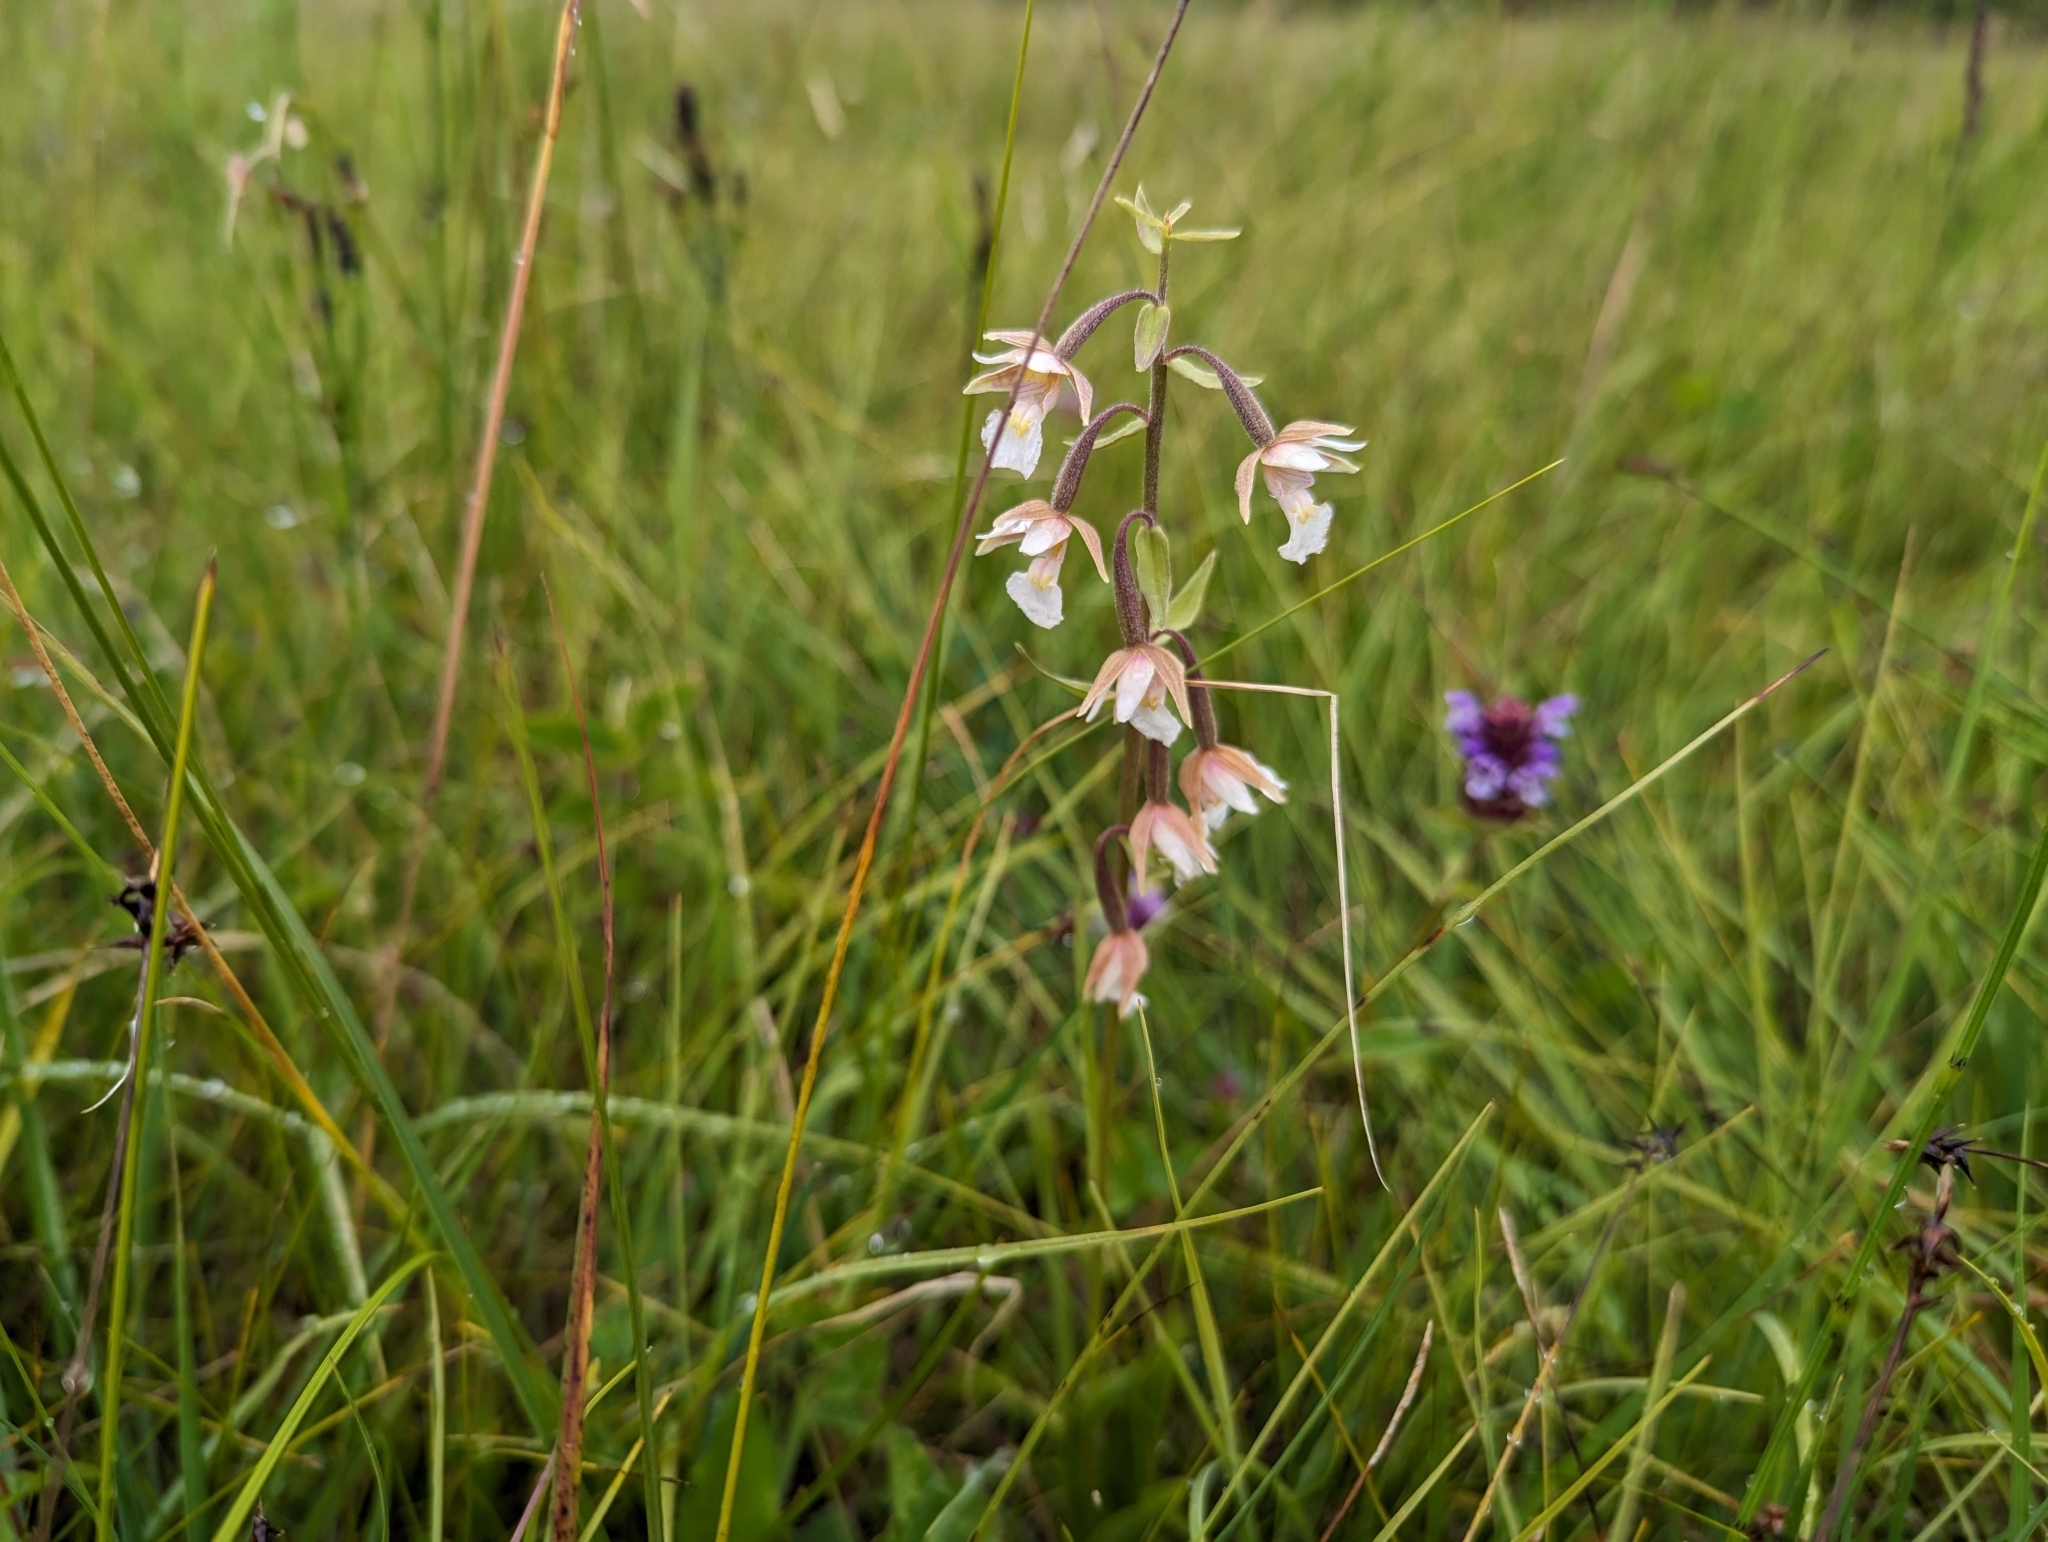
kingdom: Plantae
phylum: Tracheophyta
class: Liliopsida
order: Asparagales
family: Orchidaceae
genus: Epipactis
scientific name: Epipactis palustris
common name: Marsh helleborine
